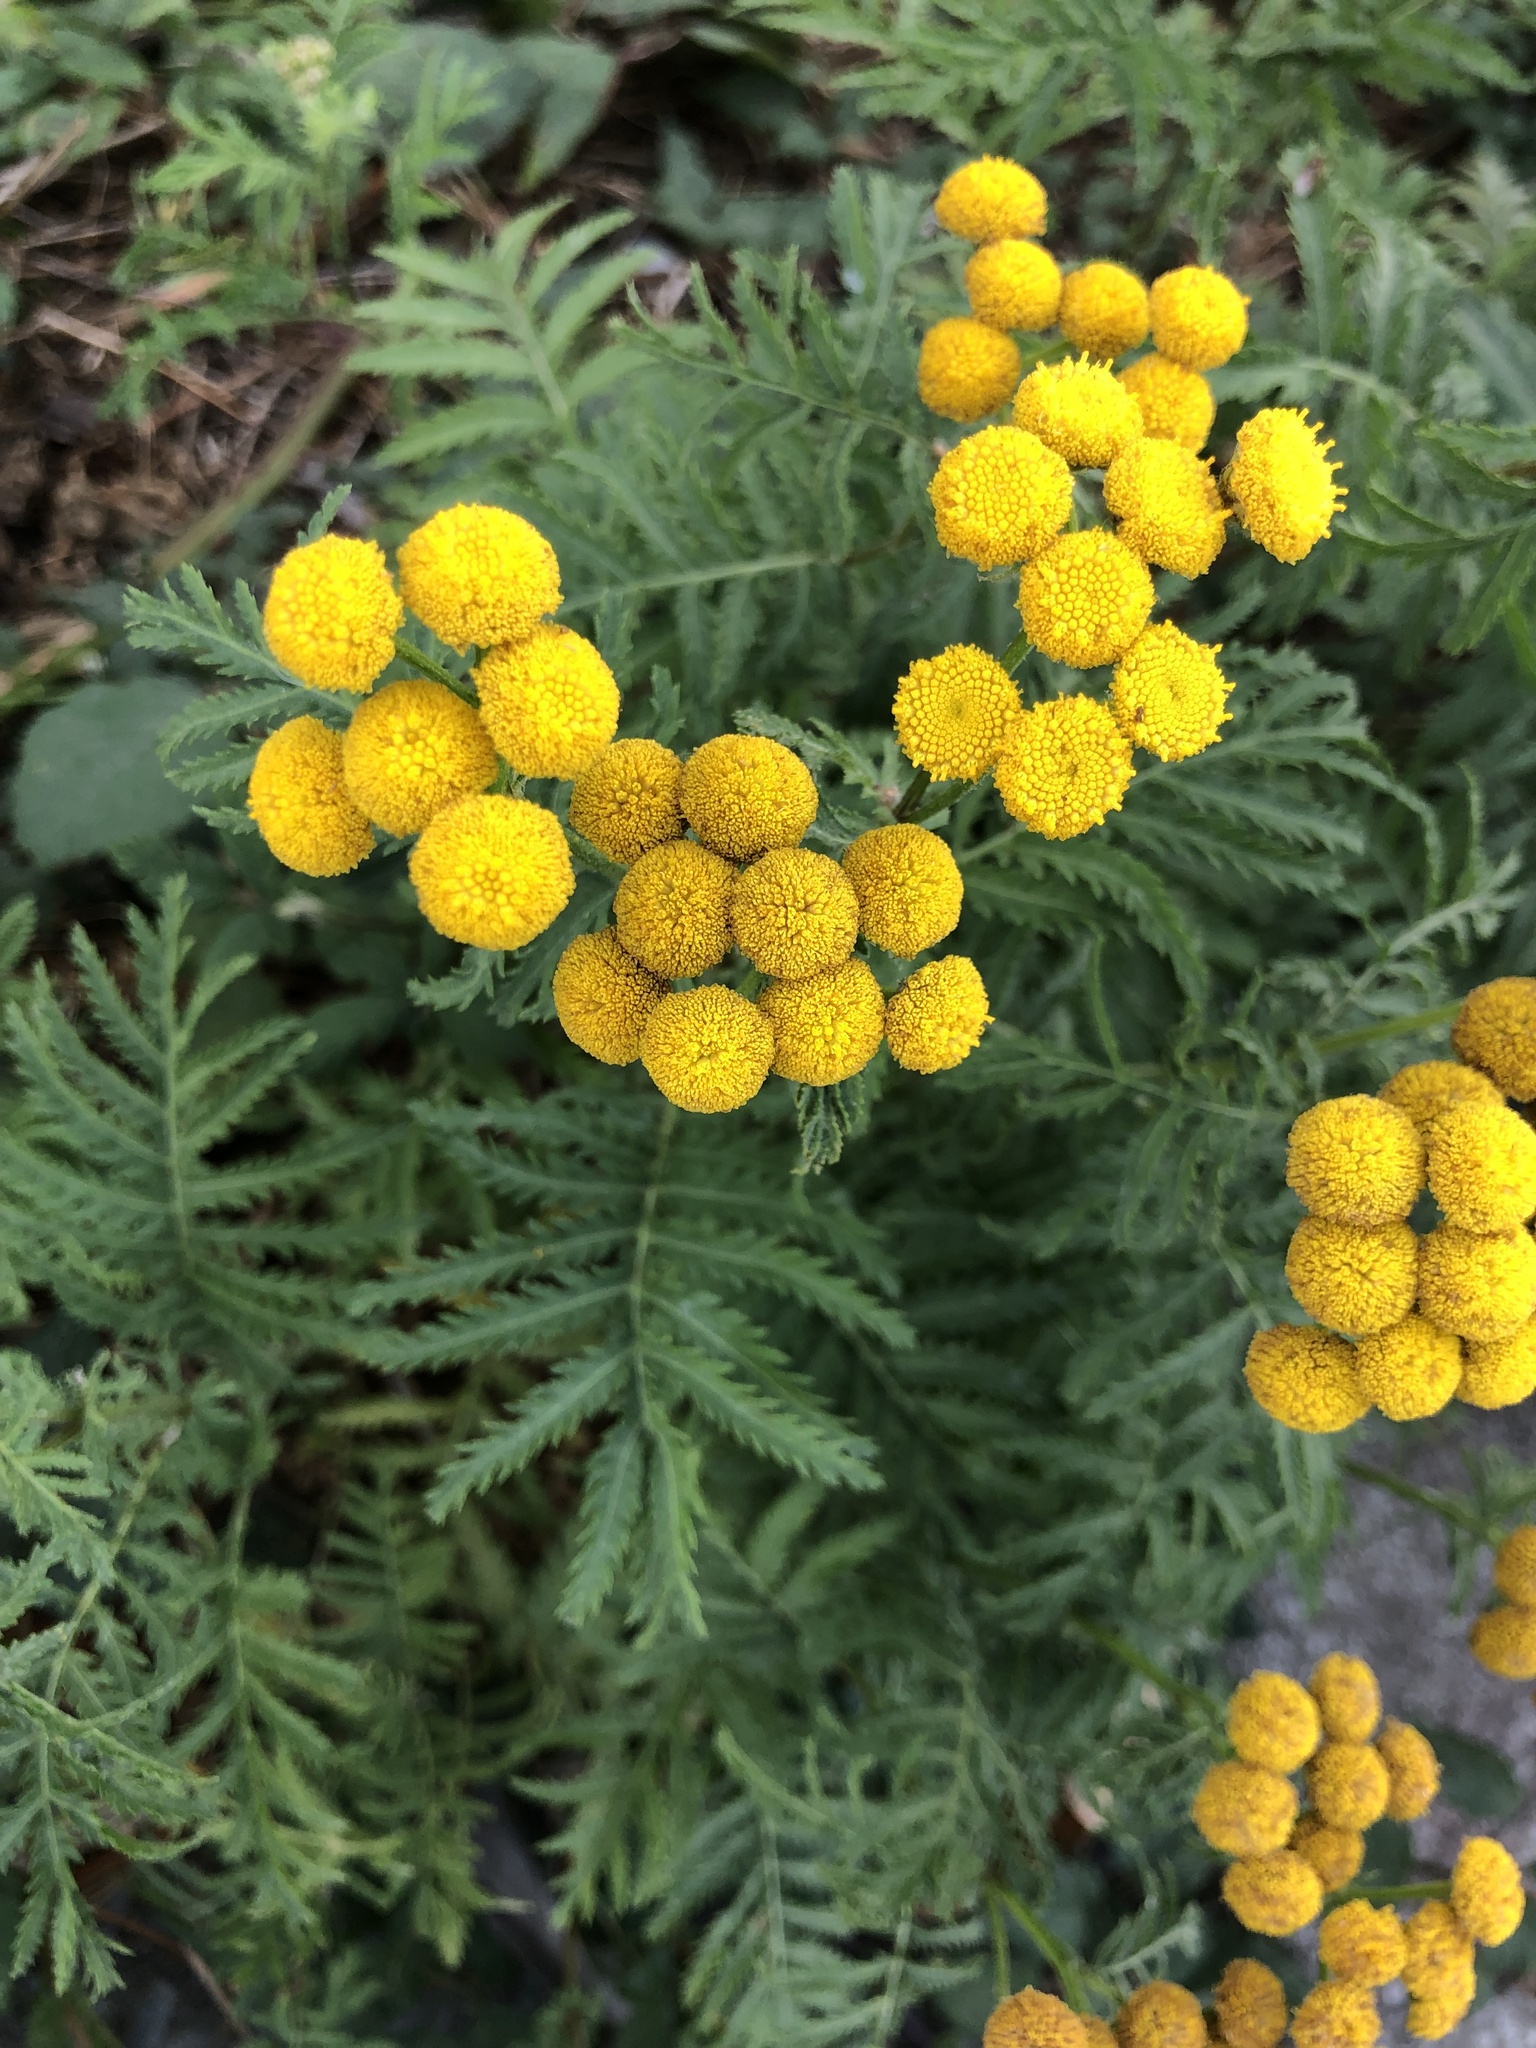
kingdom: Plantae
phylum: Tracheophyta
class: Magnoliopsida
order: Asterales
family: Asteraceae
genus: Tanacetum
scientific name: Tanacetum vulgare
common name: Common tansy
